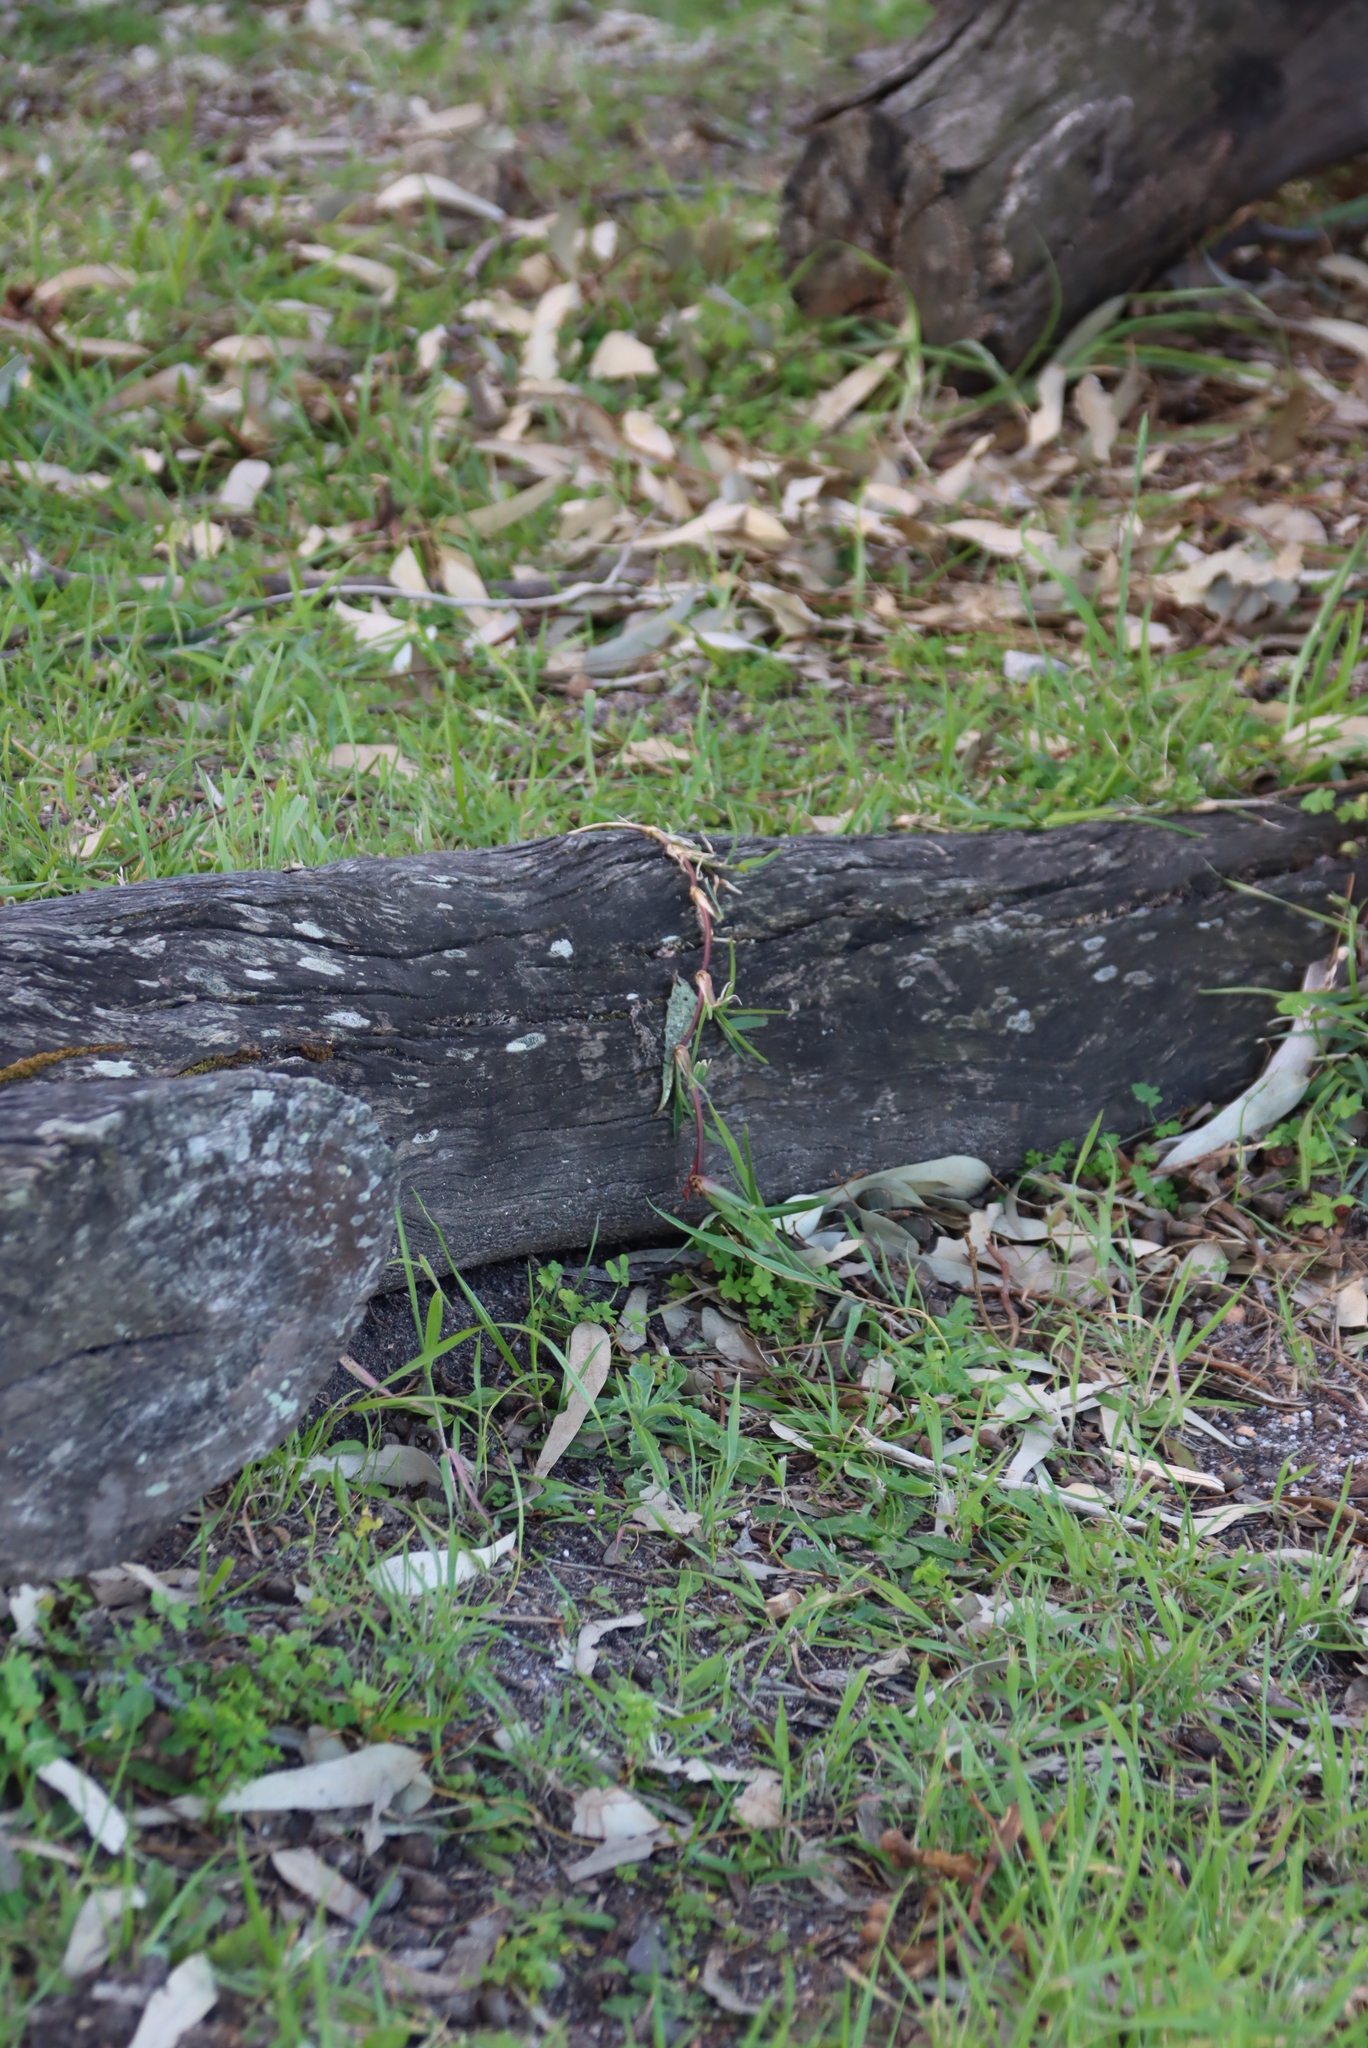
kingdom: Plantae
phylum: Tracheophyta
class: Liliopsida
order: Poales
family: Poaceae
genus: Stenotaphrum
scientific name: Stenotaphrum secundatum
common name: St. augustine grass
